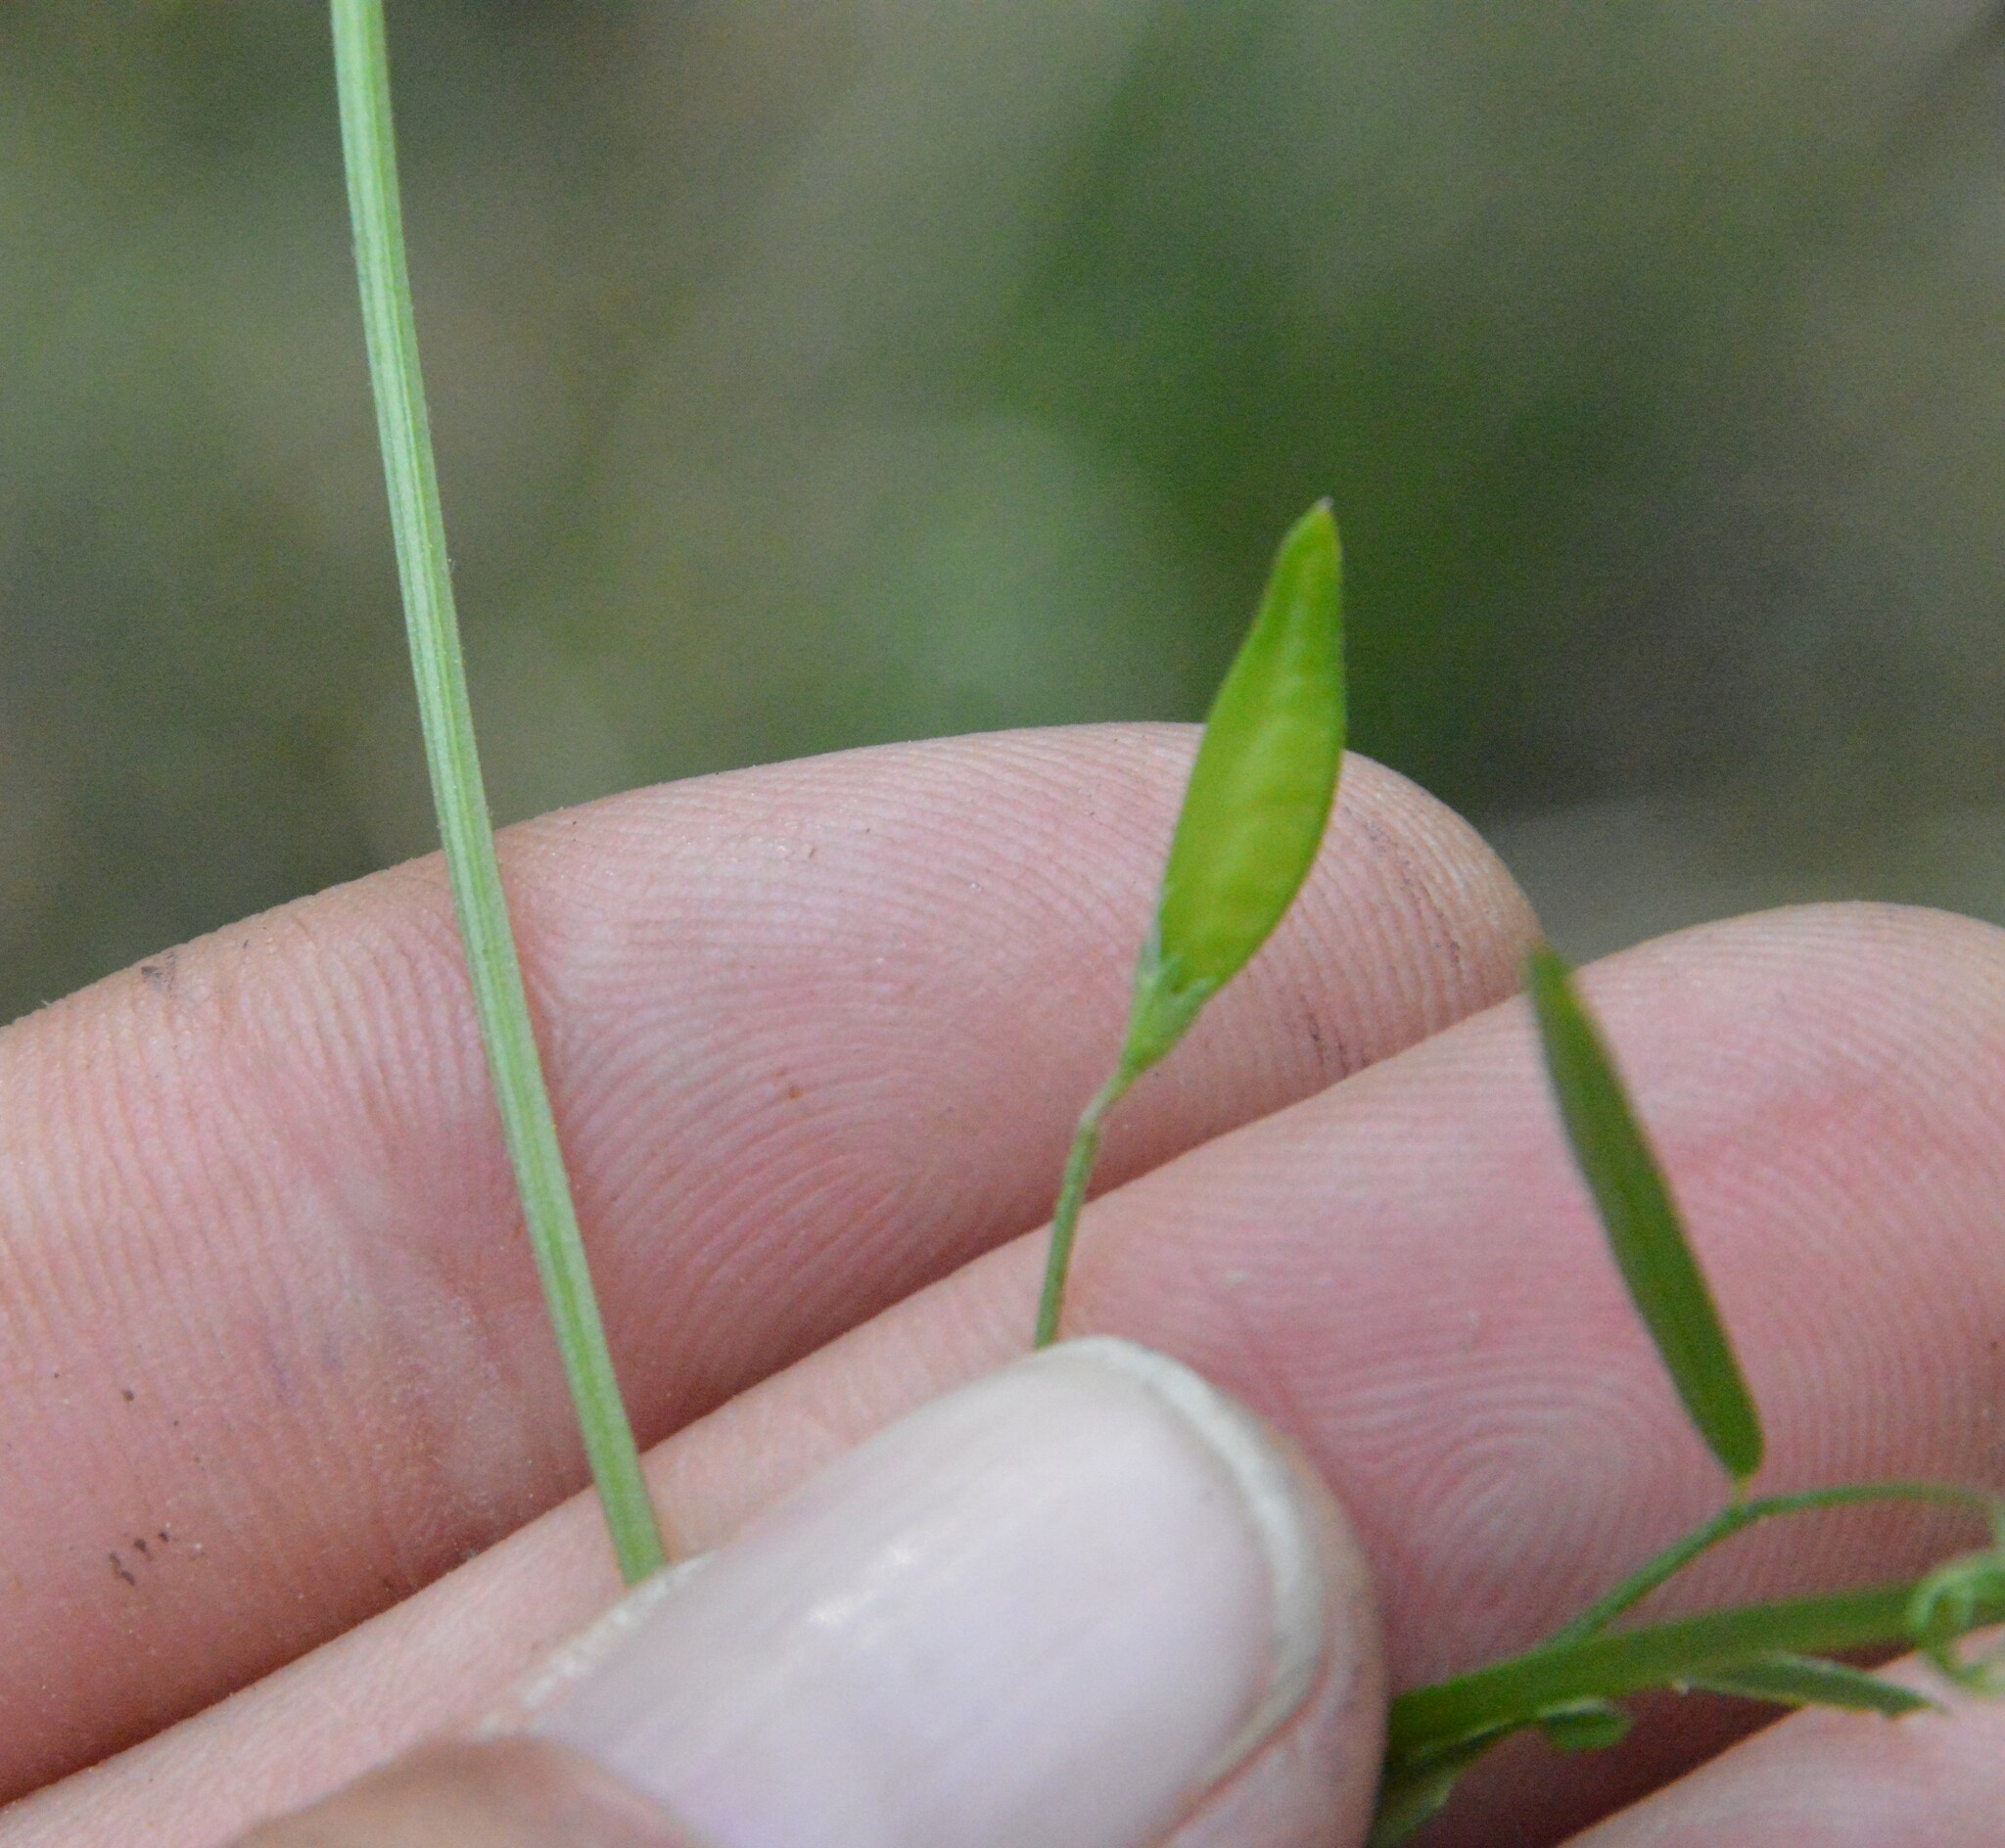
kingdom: Plantae
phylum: Tracheophyta
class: Magnoliopsida
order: Fabales
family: Fabaceae
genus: Vicia
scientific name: Vicia minutiflora
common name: Pygmy-flower vetch
